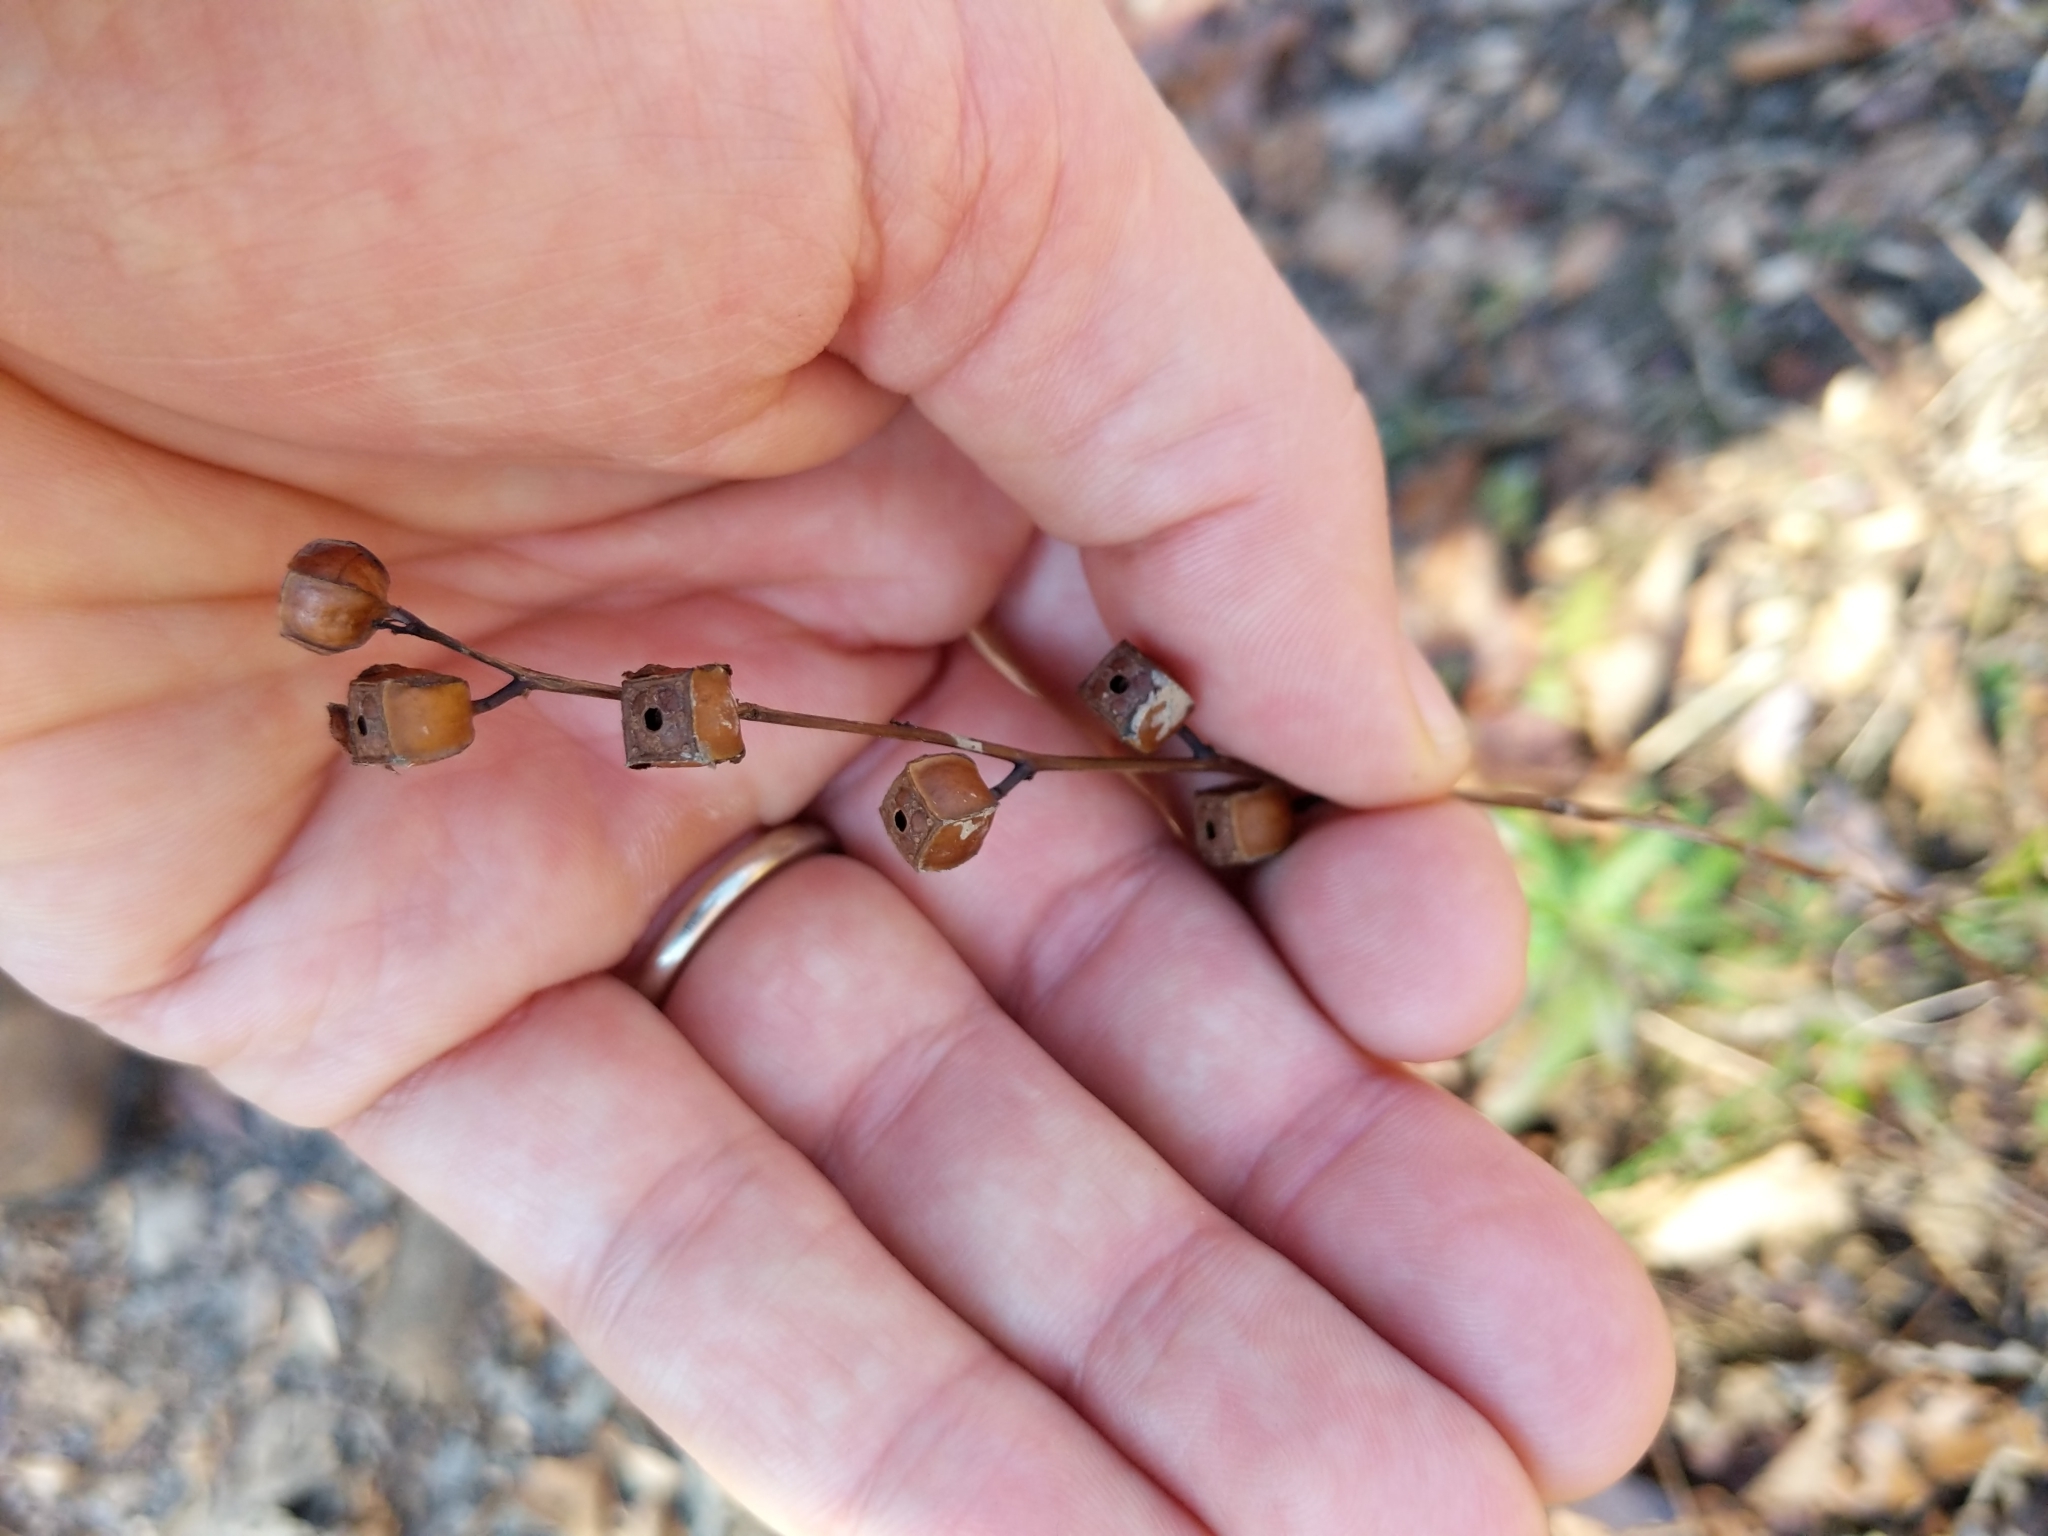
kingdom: Plantae
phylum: Tracheophyta
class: Magnoliopsida
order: Myrtales
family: Onagraceae
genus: Ludwigia
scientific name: Ludwigia alternifolia
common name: Rattlebox
